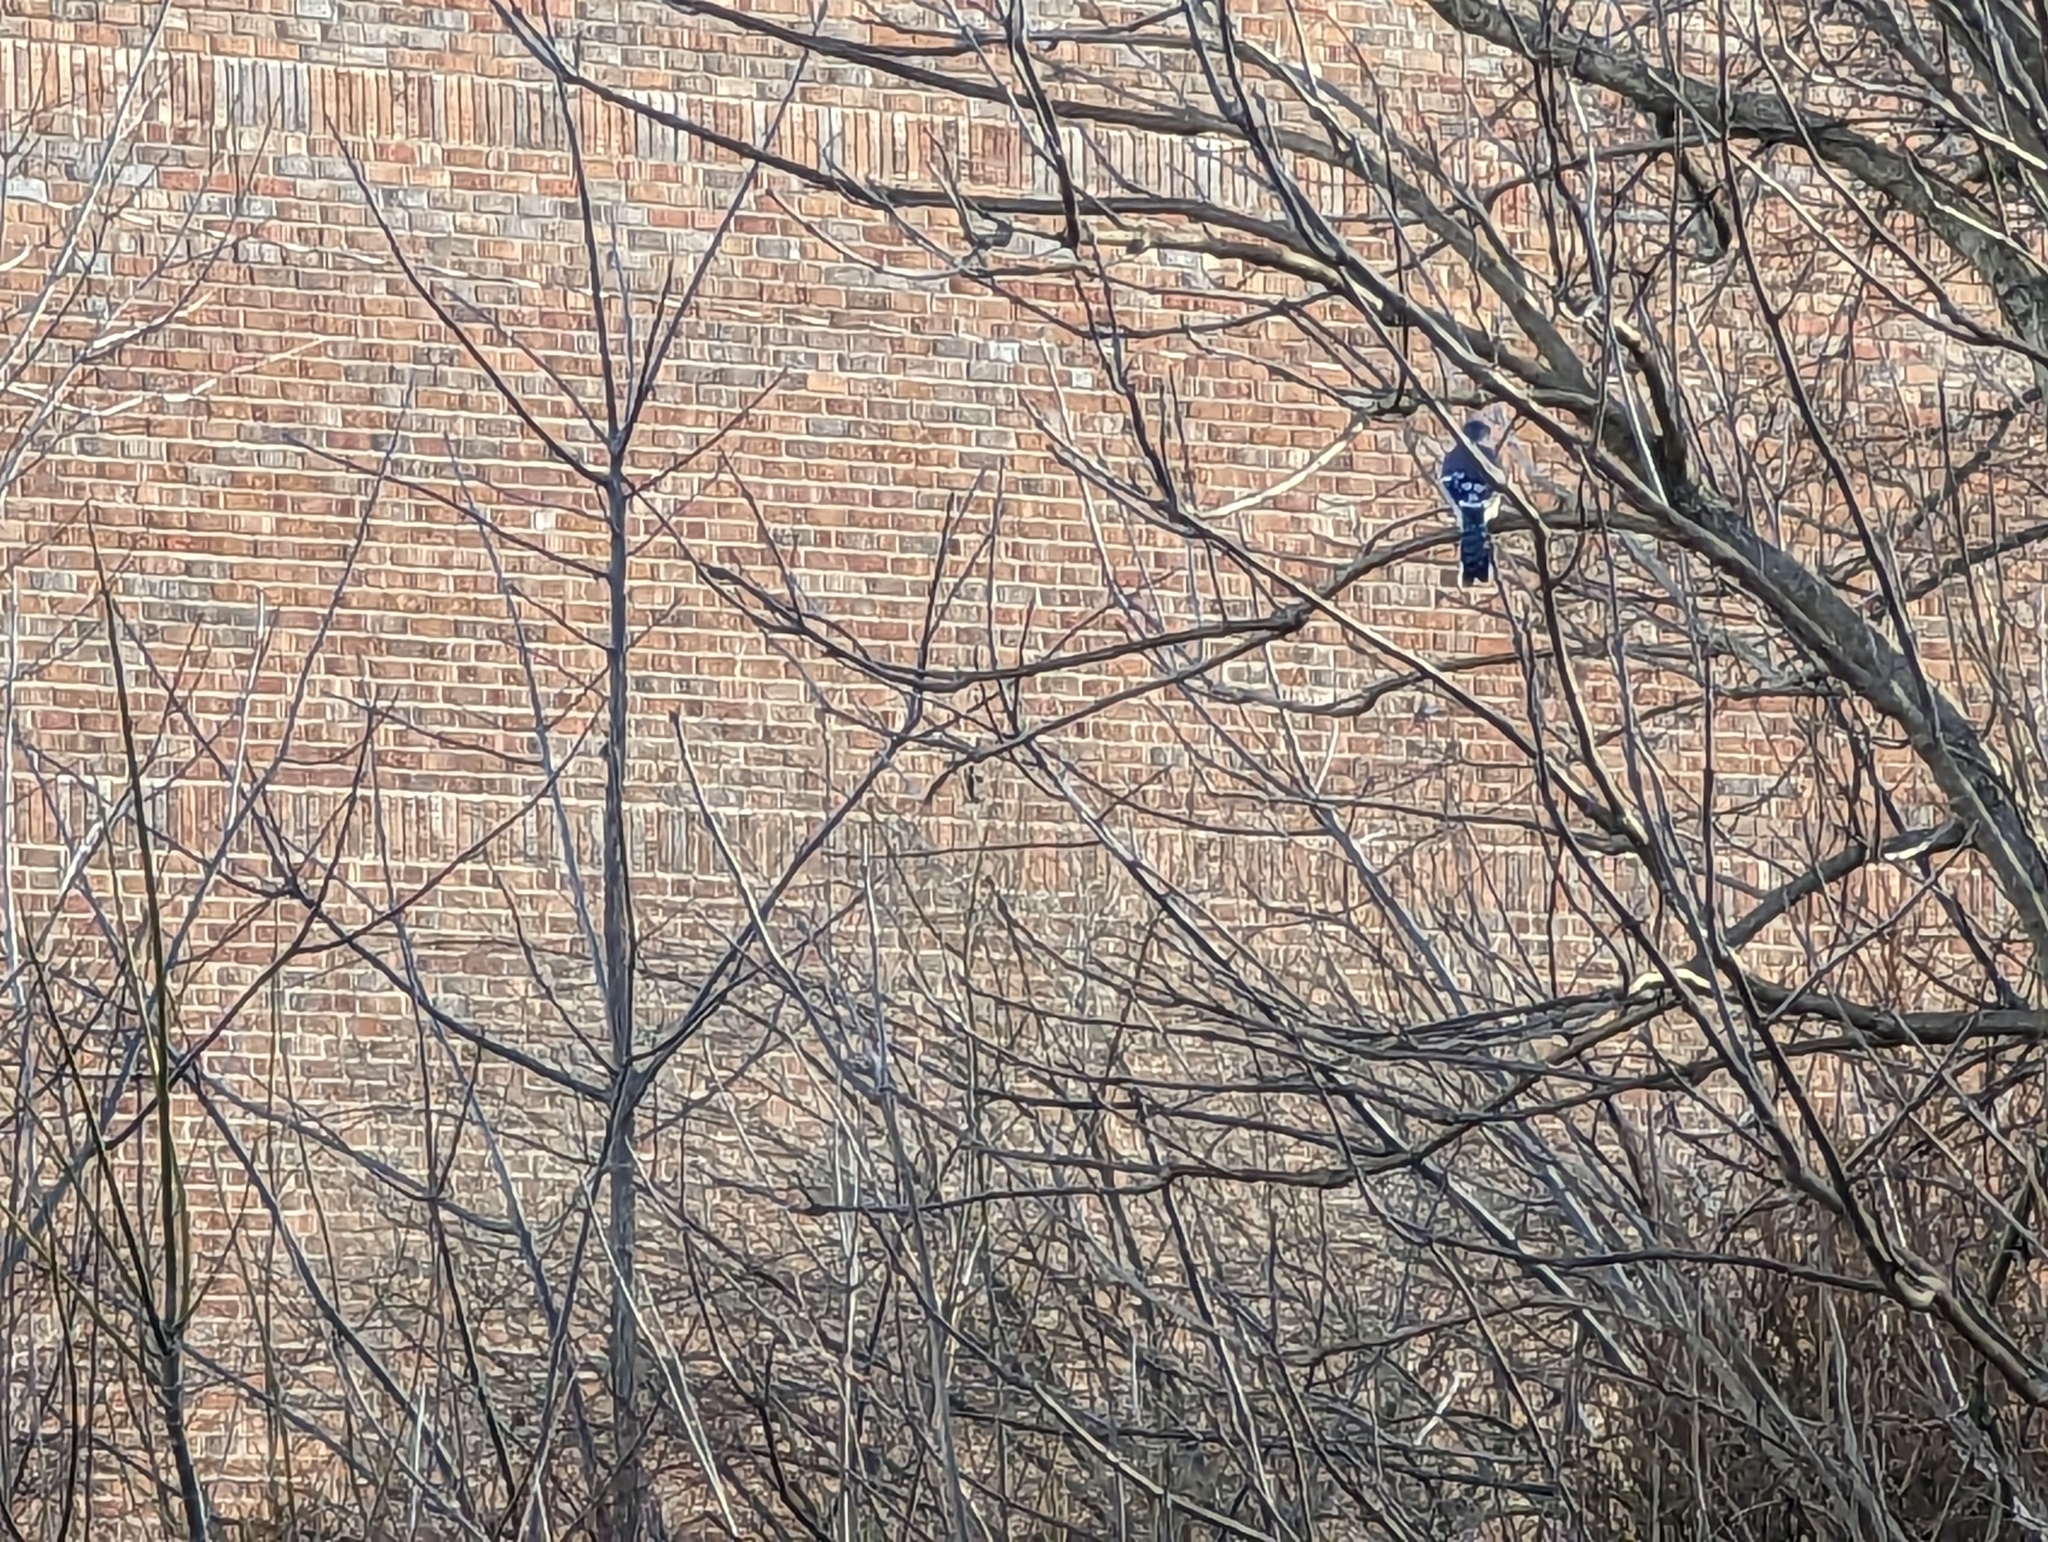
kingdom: Animalia
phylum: Chordata
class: Aves
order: Passeriformes
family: Corvidae
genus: Cyanocitta
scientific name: Cyanocitta cristata
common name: Blue jay
